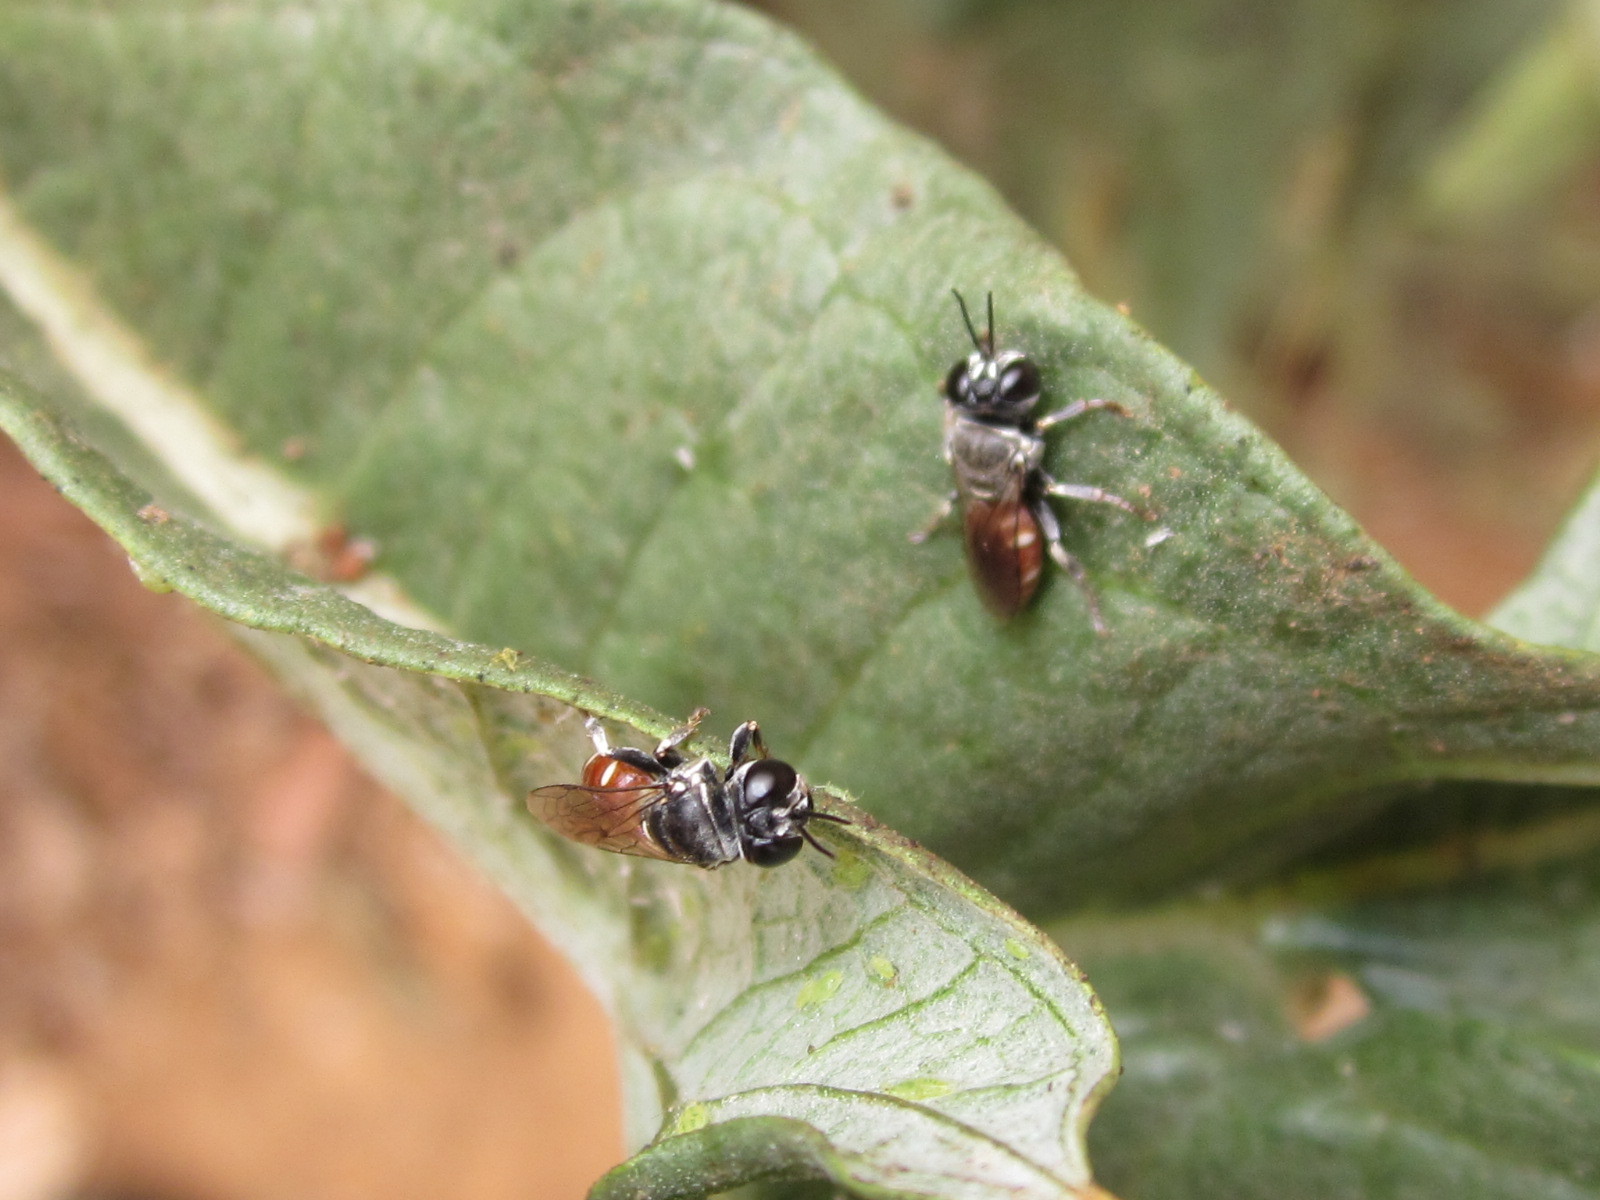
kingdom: Animalia
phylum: Arthropoda
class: Insecta
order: Hymenoptera
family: Crabronidae
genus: Heliocausus
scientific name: Heliocausus larroides
